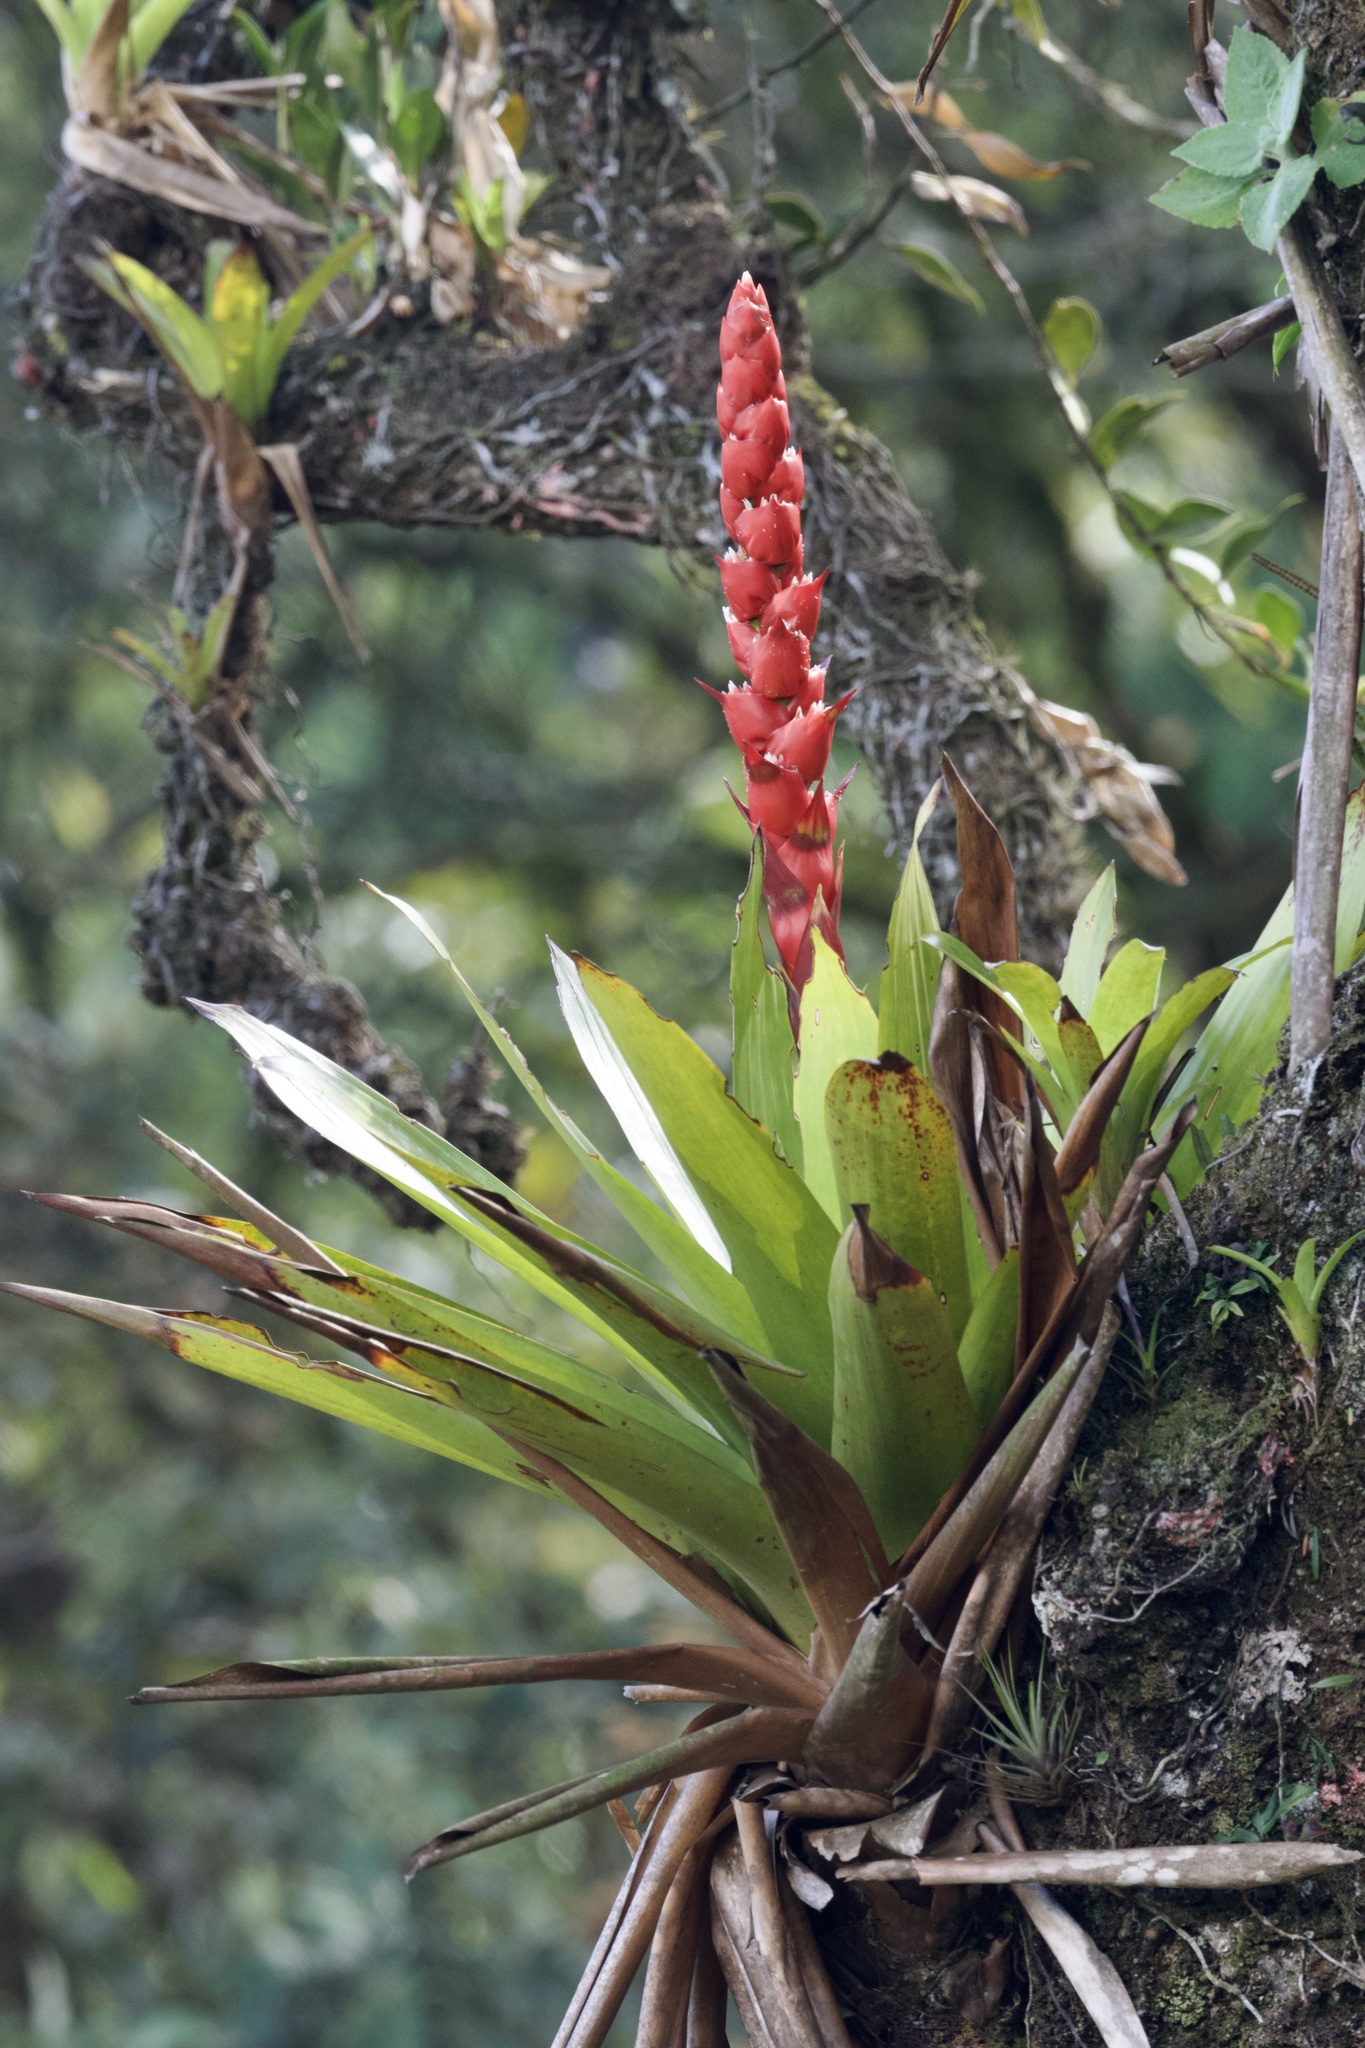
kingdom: Plantae
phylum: Tracheophyta
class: Liliopsida
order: Poales
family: Bromeliaceae
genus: Cipuropsis
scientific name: Cipuropsis capituligera
